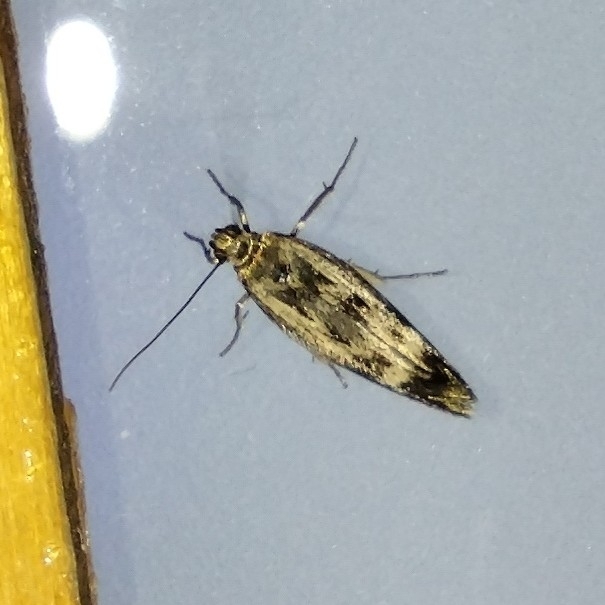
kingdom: Animalia
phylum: Arthropoda
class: Insecta
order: Lepidoptera
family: Scythrididae
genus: Scythris
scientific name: Scythris limbella
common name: Goosefoot owlet
